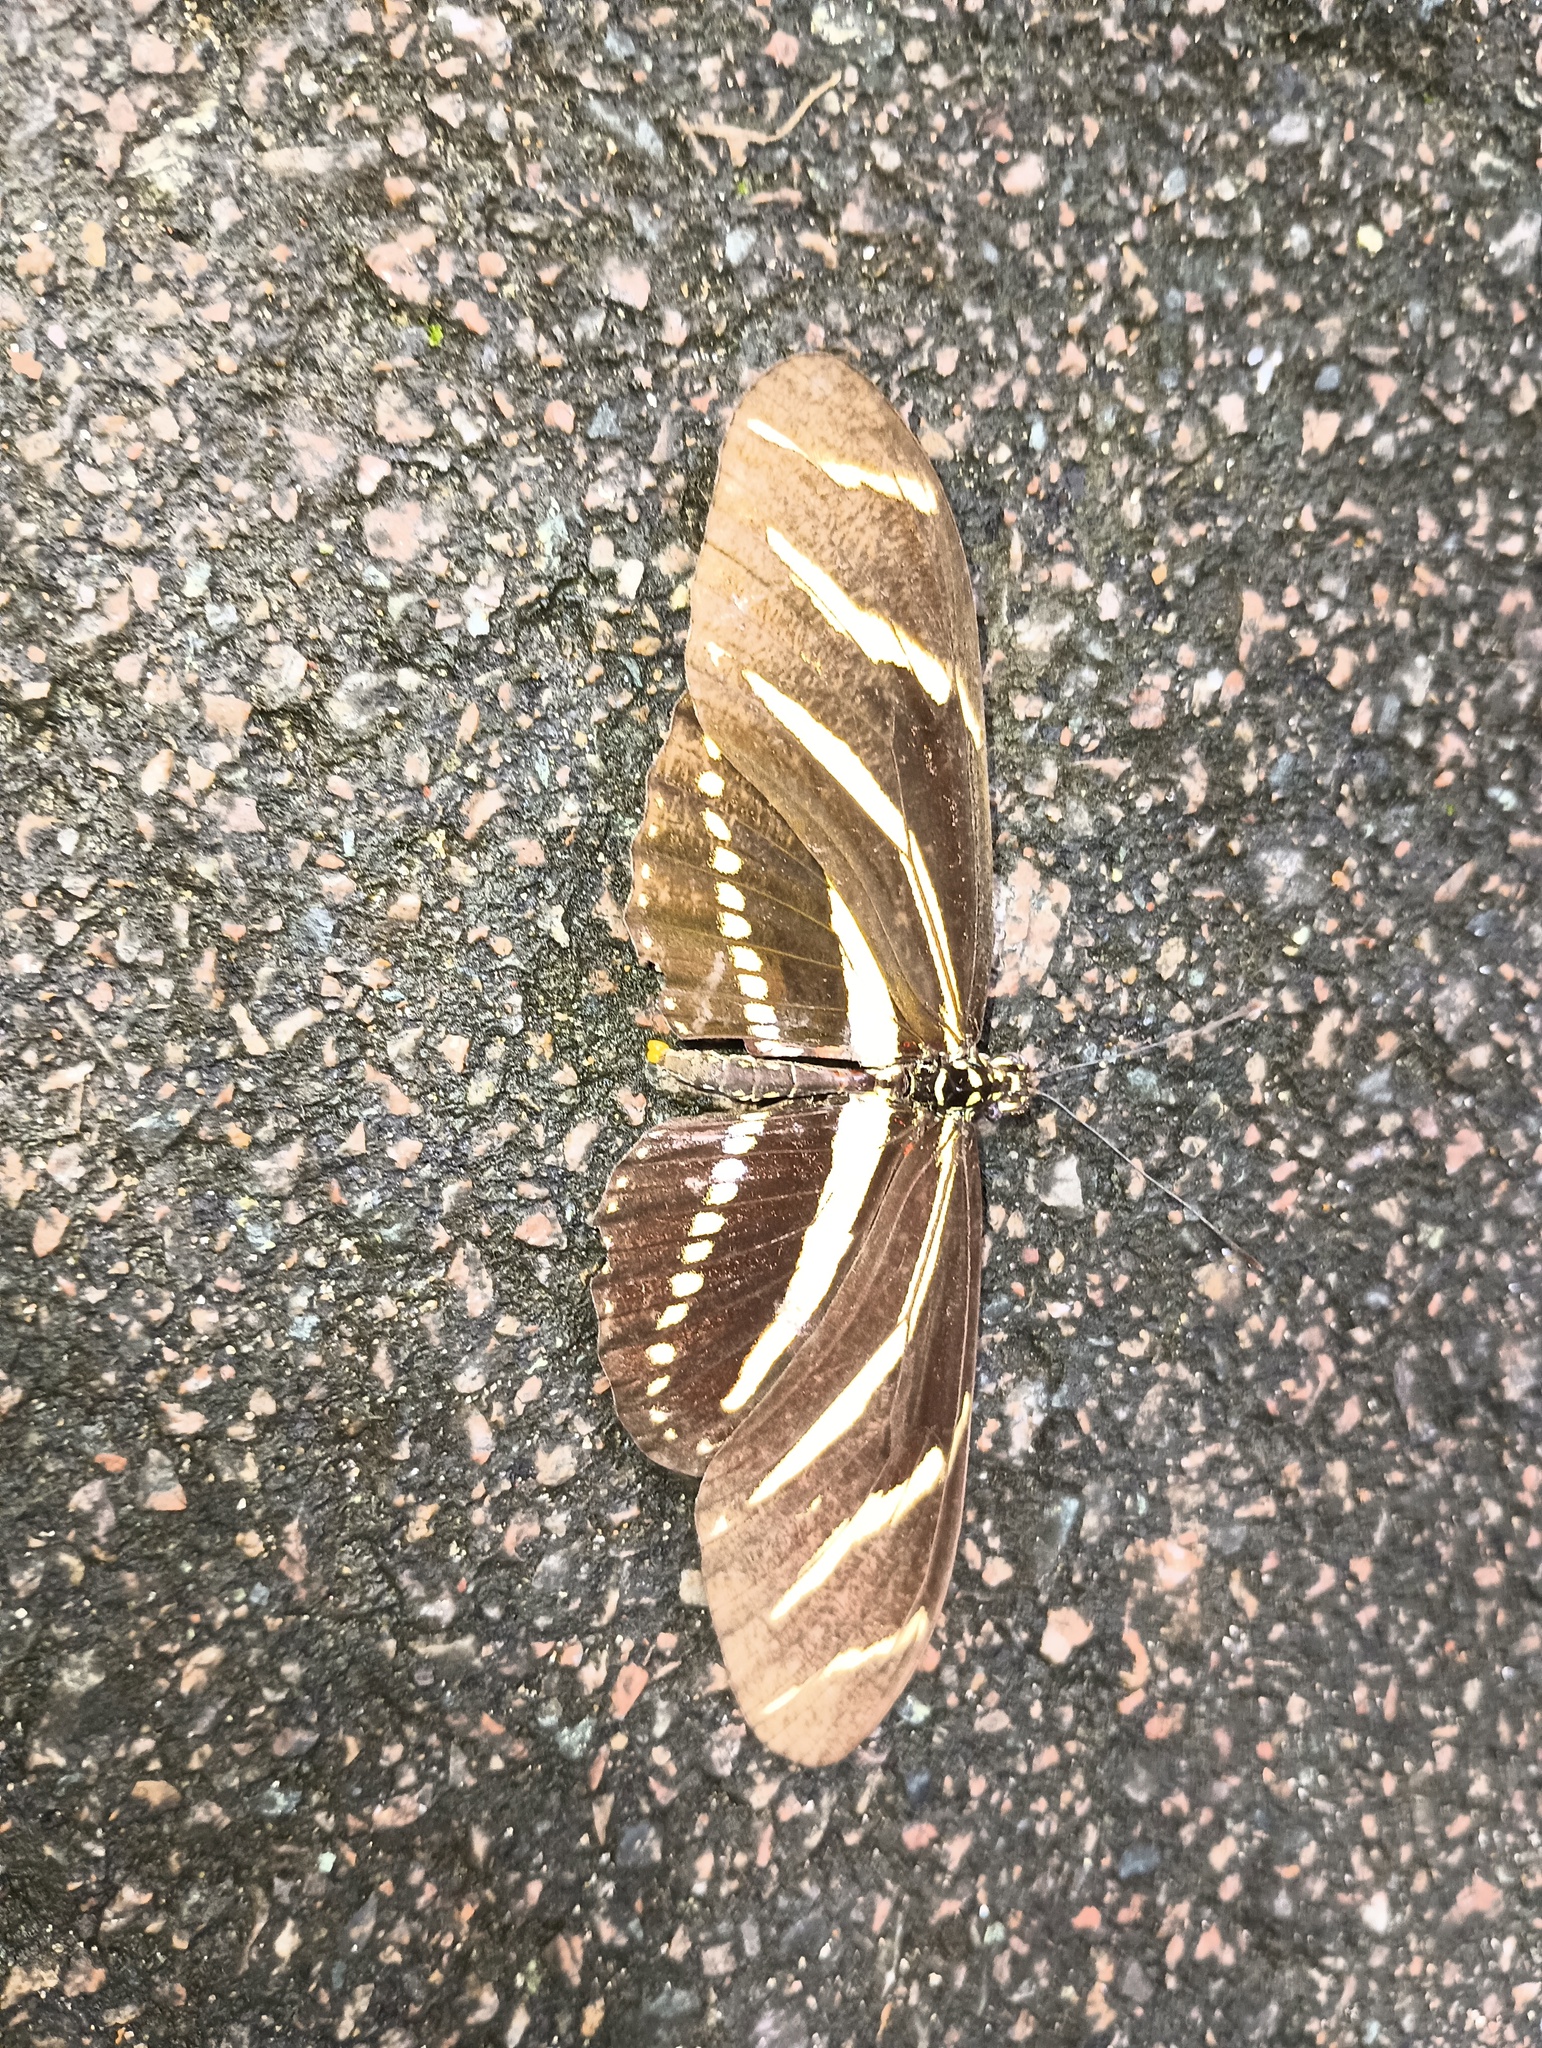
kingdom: Animalia
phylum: Arthropoda
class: Insecta
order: Lepidoptera
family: Nymphalidae
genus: Heliconius
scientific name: Heliconius charithonia
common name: Zebra long wing
